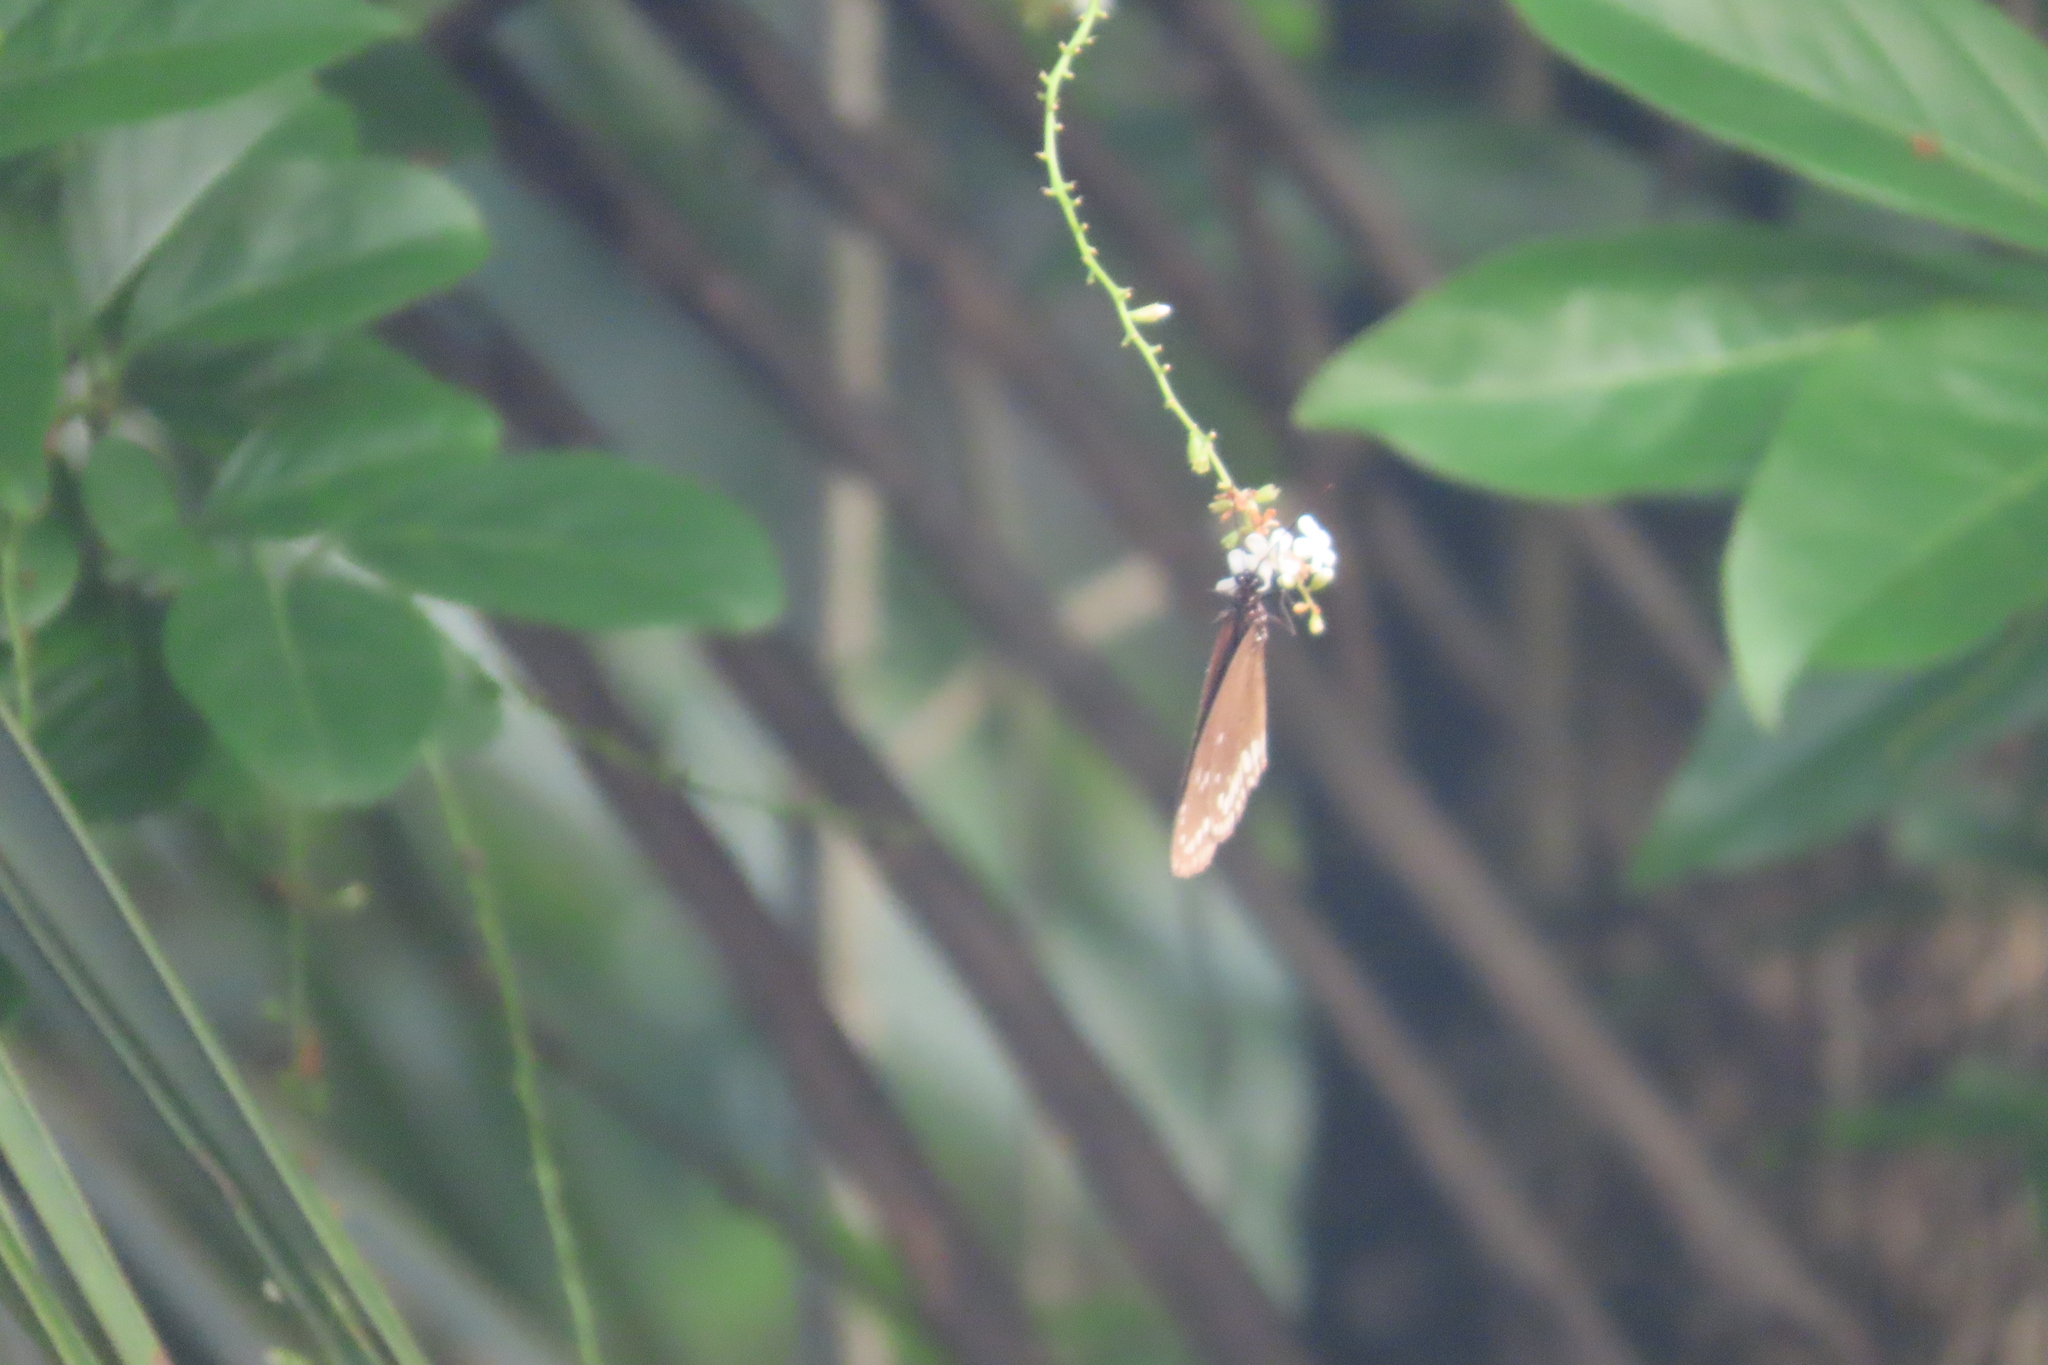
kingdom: Animalia
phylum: Arthropoda
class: Insecta
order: Lepidoptera
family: Nymphalidae
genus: Euploea
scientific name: Euploea core
